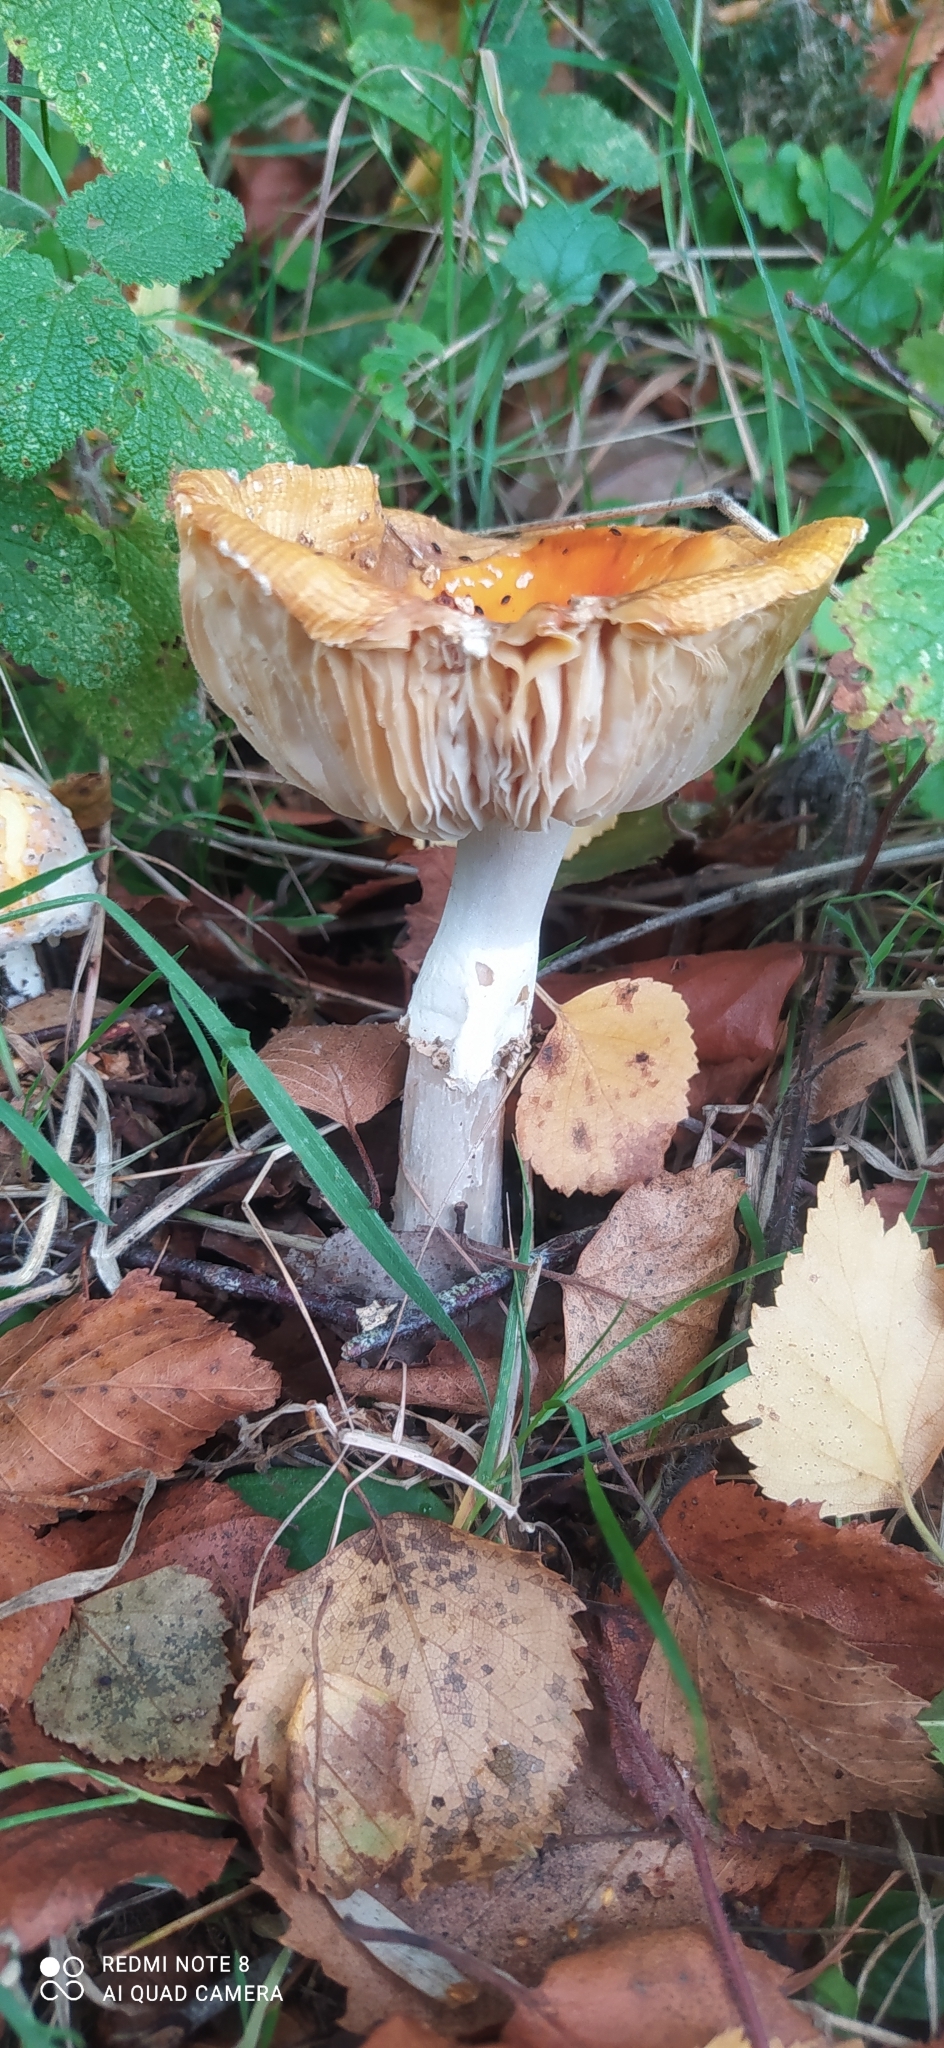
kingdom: Fungi
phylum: Basidiomycota
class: Agaricomycetes
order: Agaricales
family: Amanitaceae
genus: Amanita
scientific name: Amanita muscaria
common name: Fly agaric
